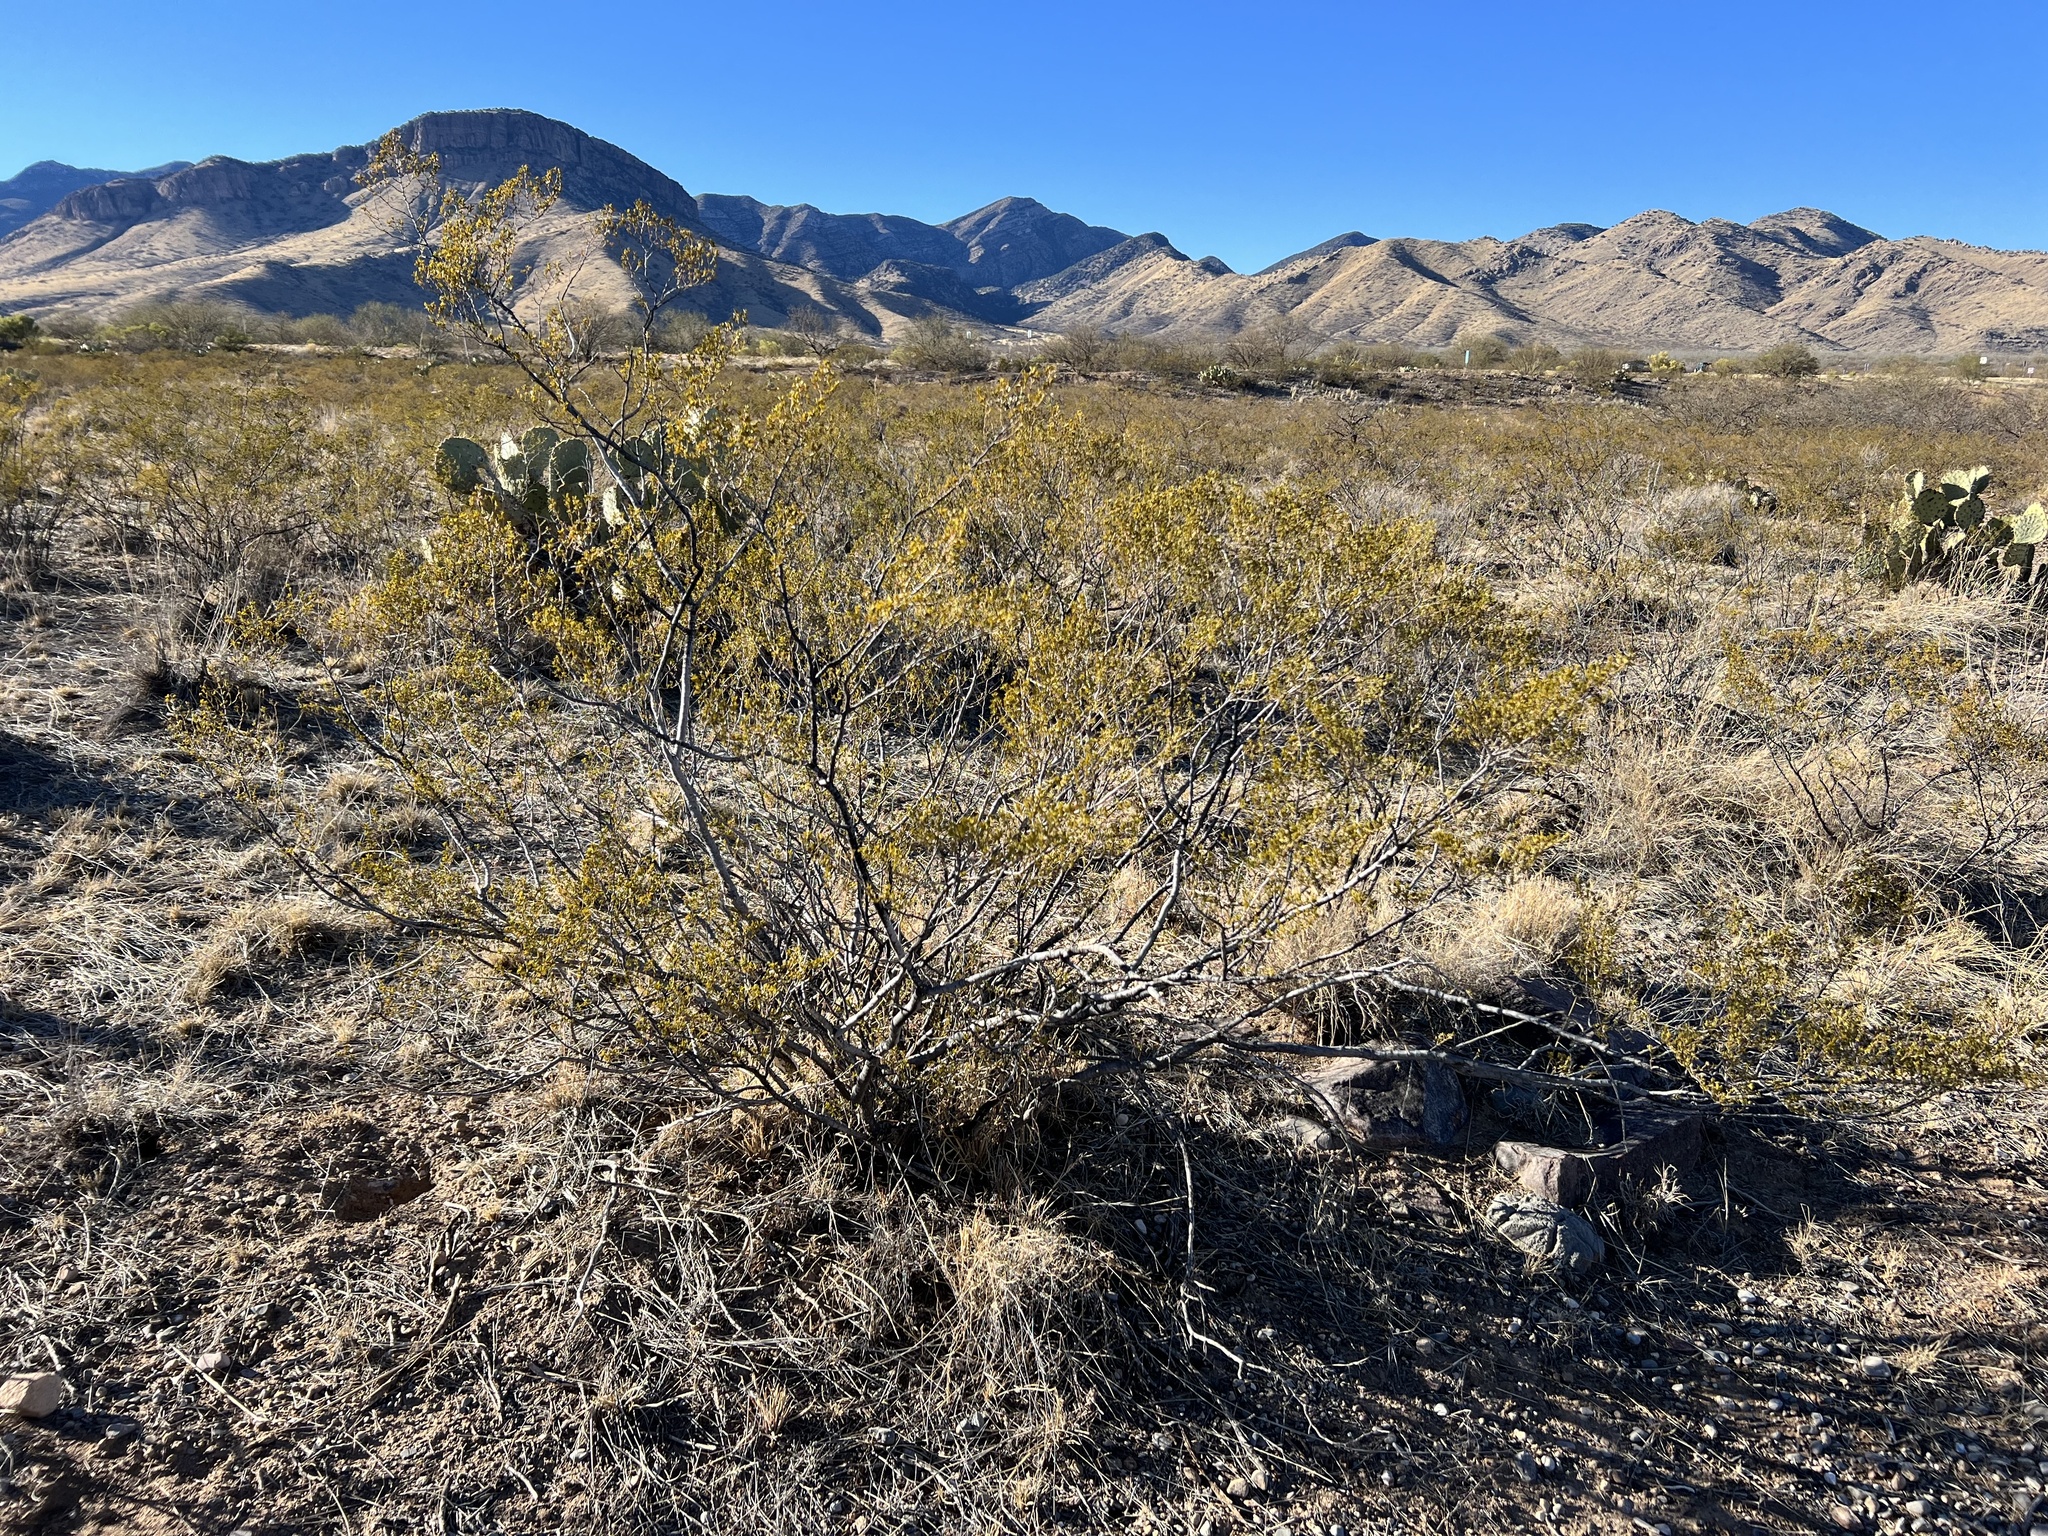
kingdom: Plantae
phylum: Tracheophyta
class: Magnoliopsida
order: Zygophyllales
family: Zygophyllaceae
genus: Larrea
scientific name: Larrea tridentata
